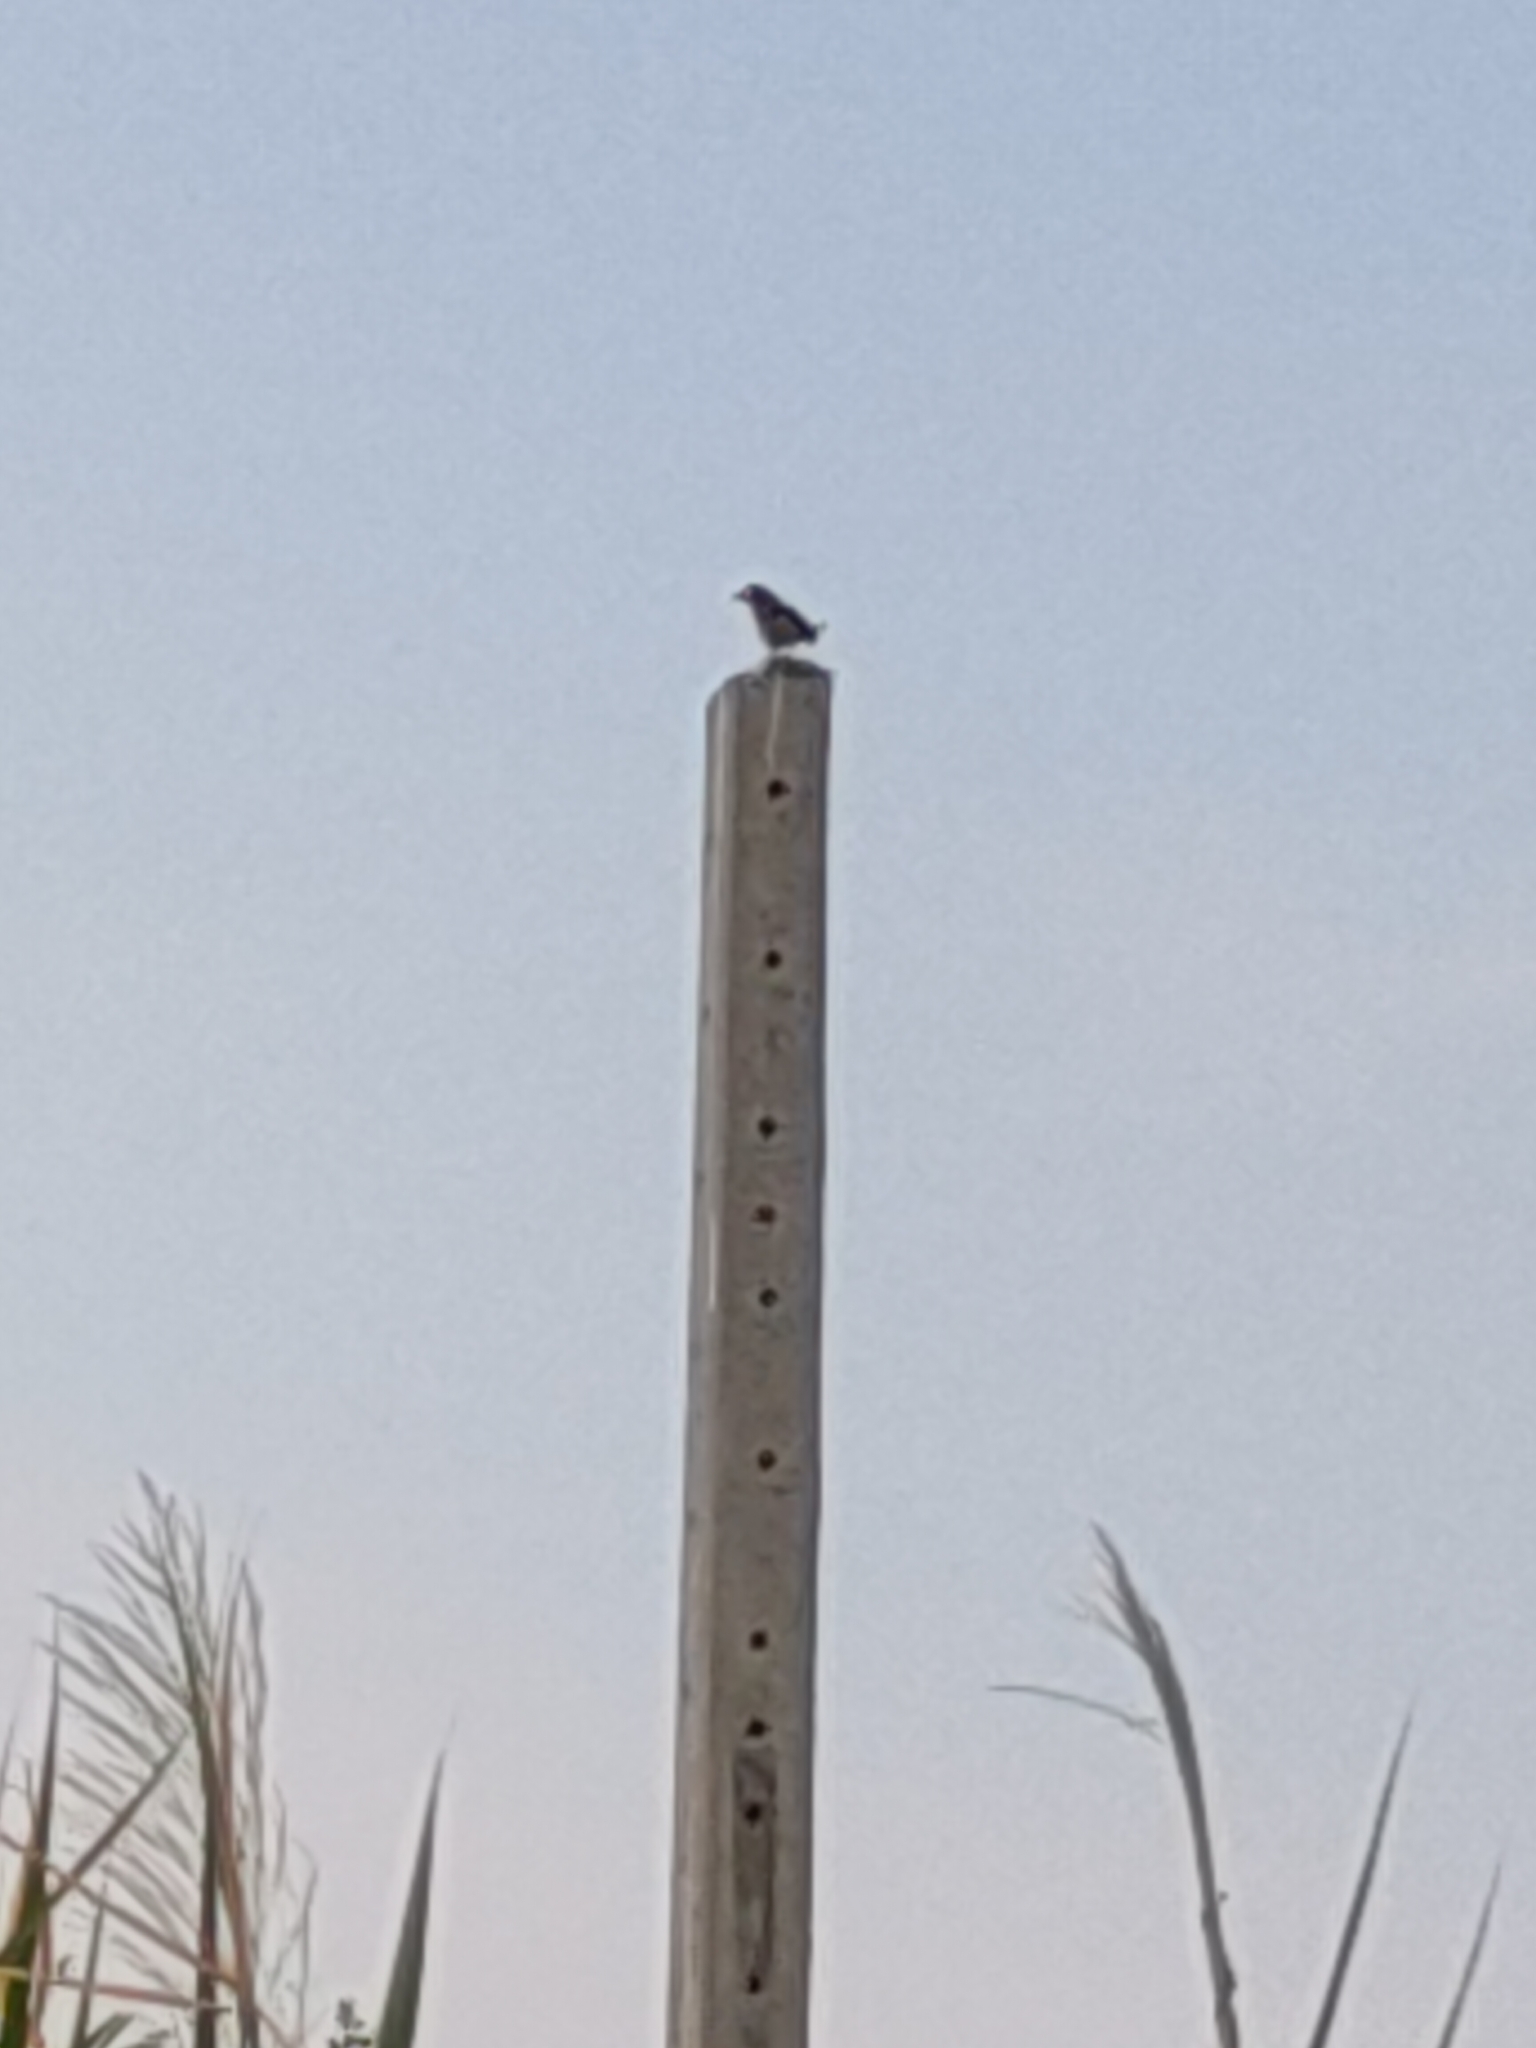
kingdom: Animalia
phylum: Chordata
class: Aves
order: Passeriformes
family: Muscicapidae
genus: Copsychus
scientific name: Copsychus saularis
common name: Oriental magpie-robin
